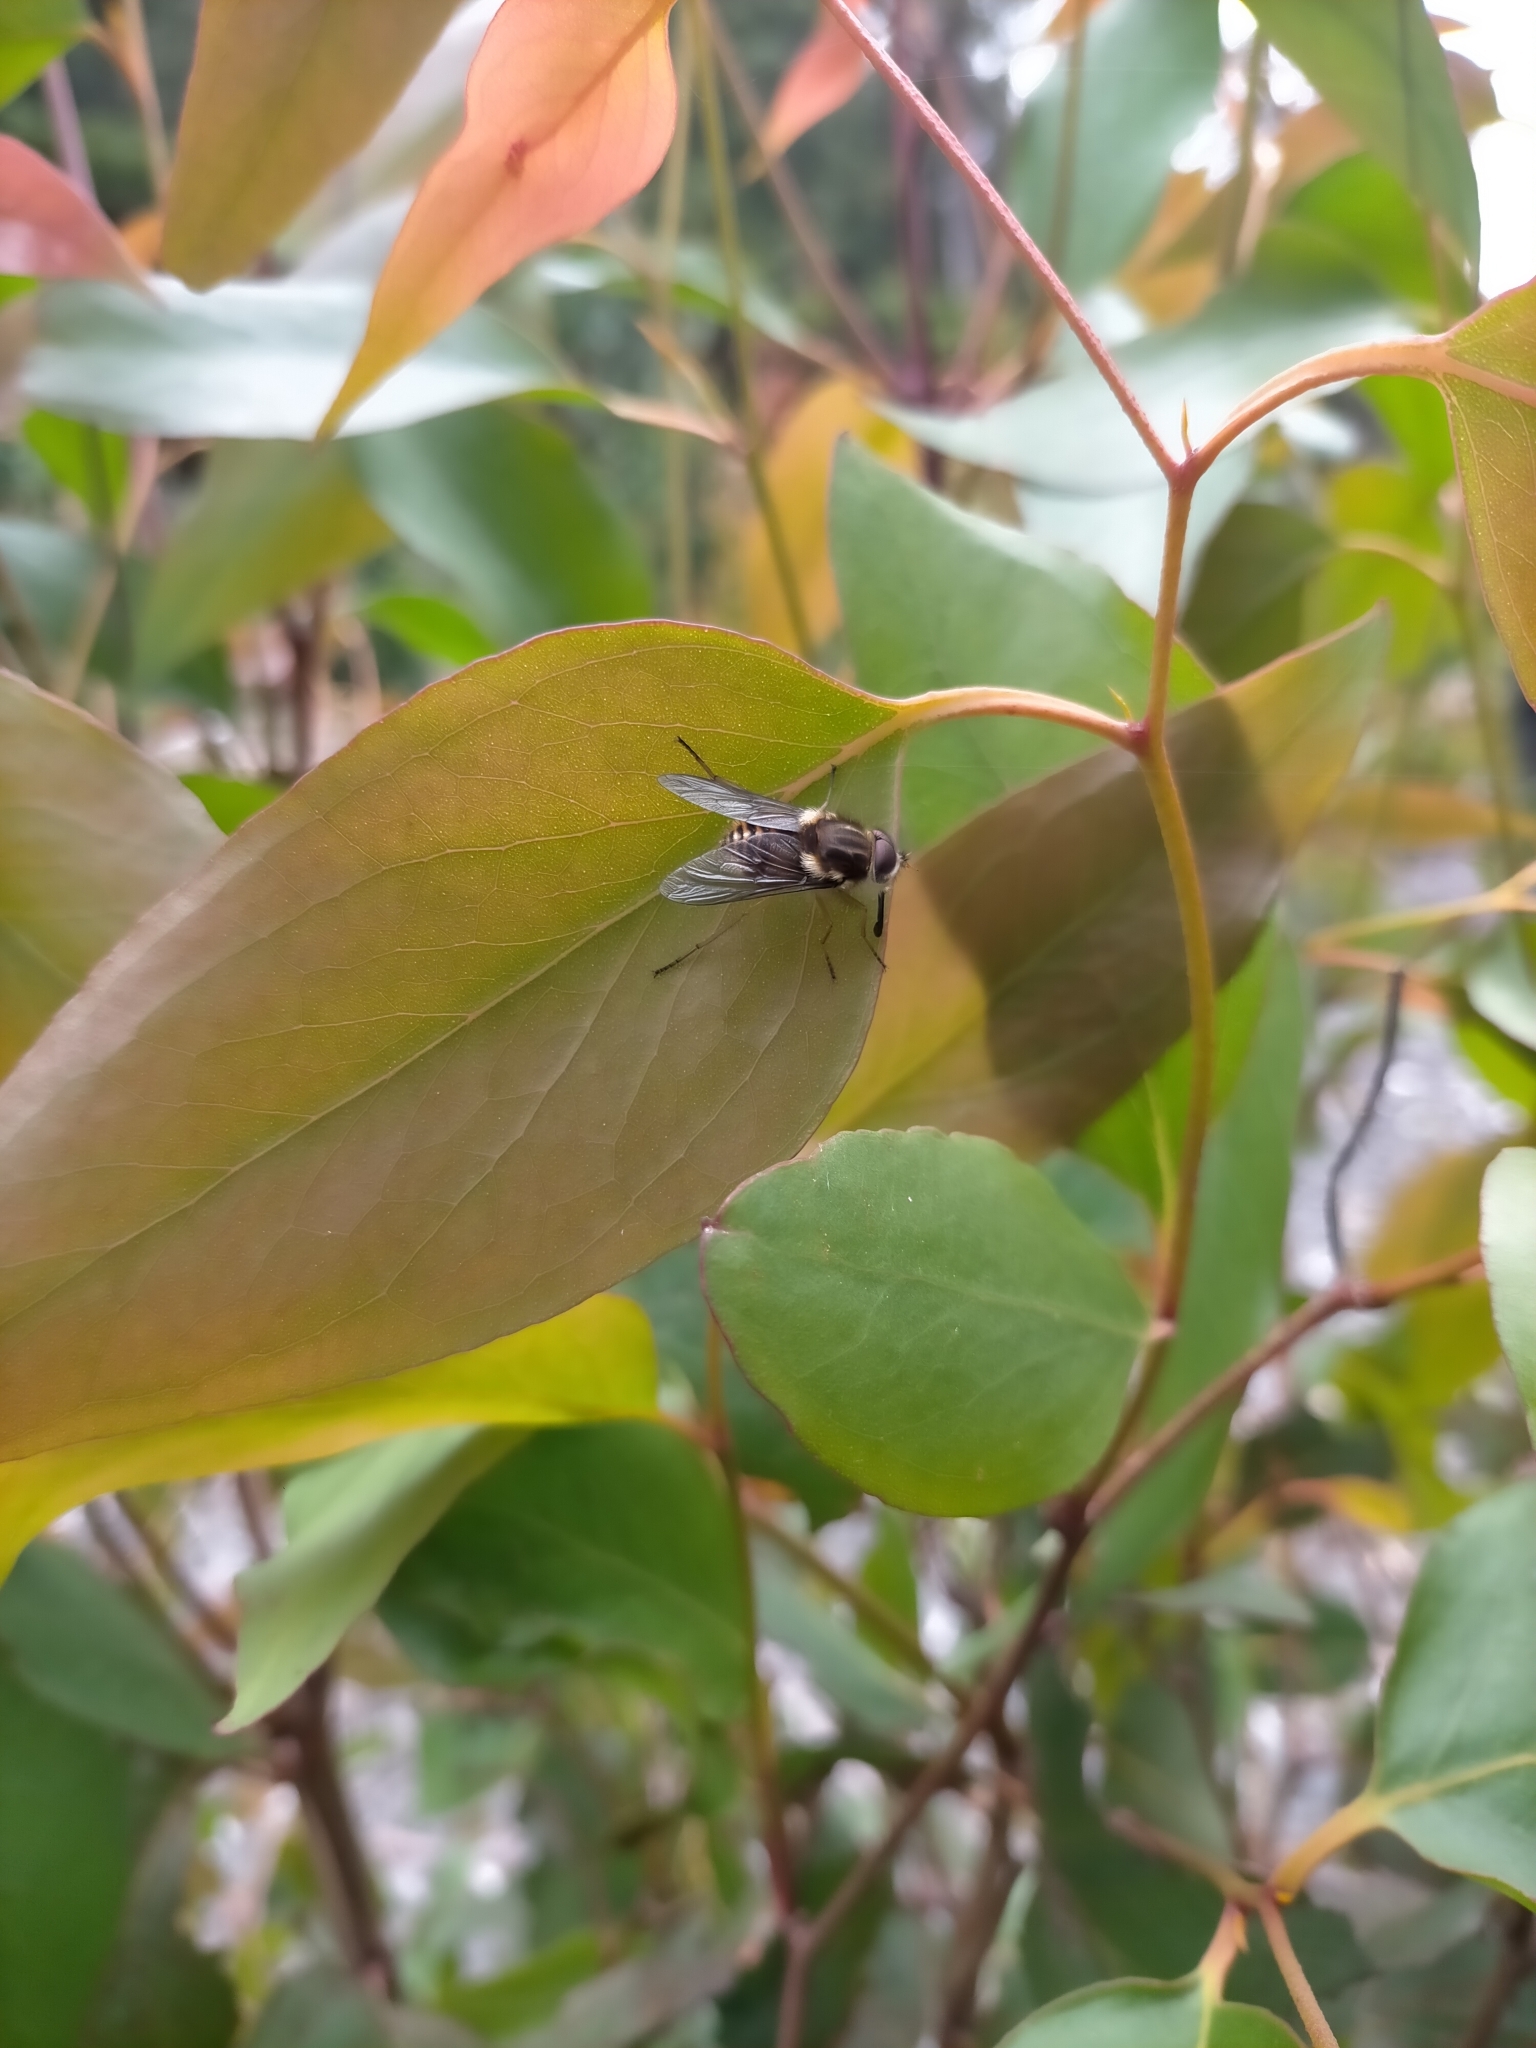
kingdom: Animalia
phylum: Arthropoda
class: Insecta
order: Diptera
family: Tabanidae
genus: Scaptia
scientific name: Scaptia jacksonii
